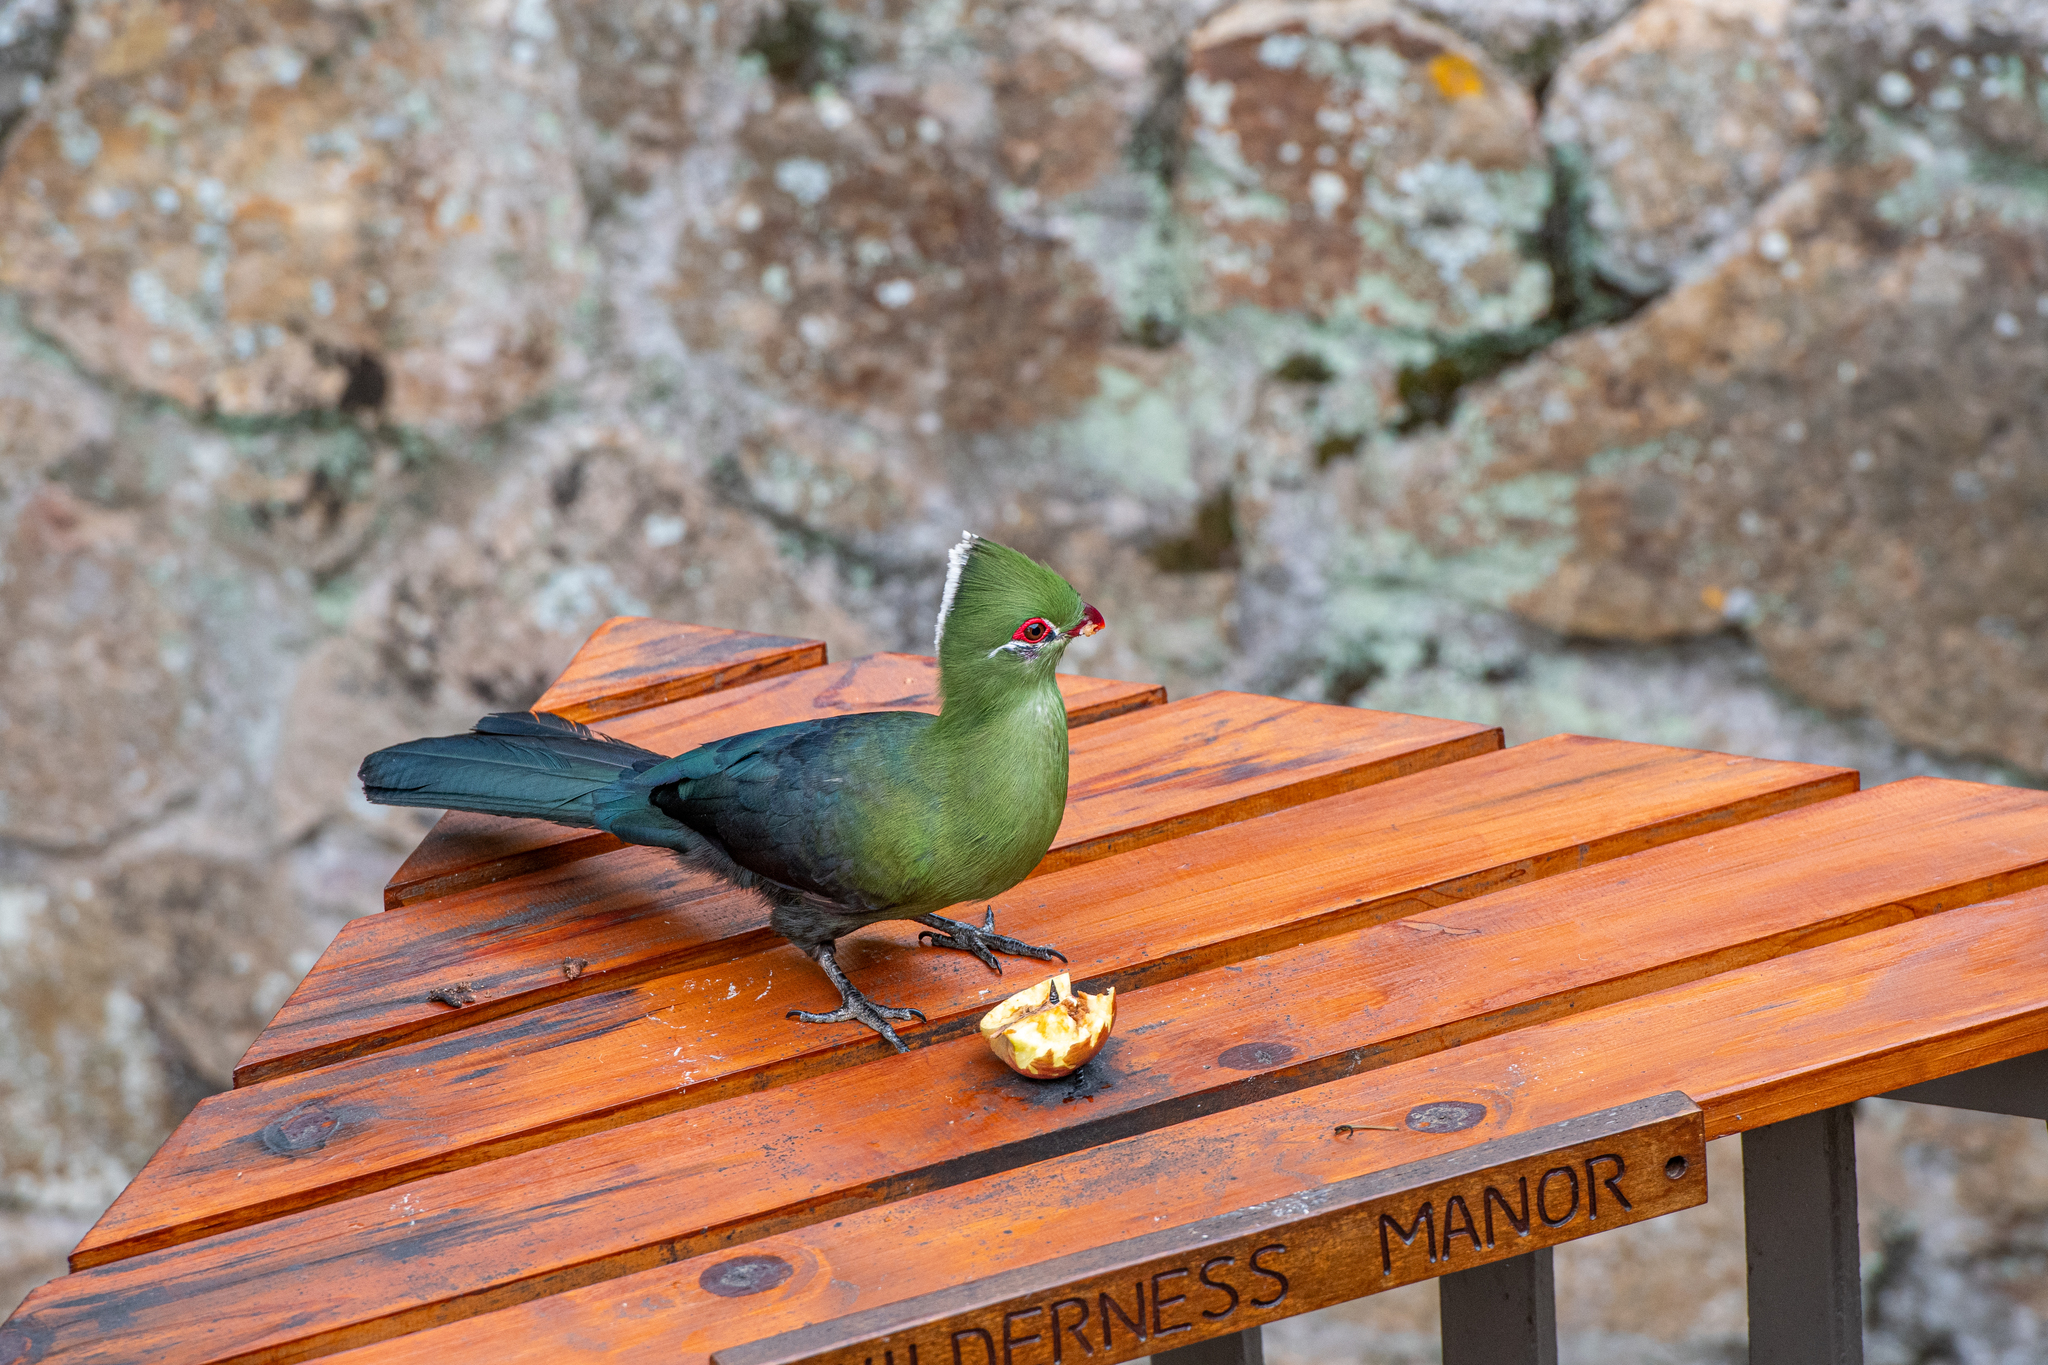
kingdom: Animalia
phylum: Chordata
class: Aves
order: Musophagiformes
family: Musophagidae
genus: Tauraco
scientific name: Tauraco corythaix
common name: Knysna turaco
